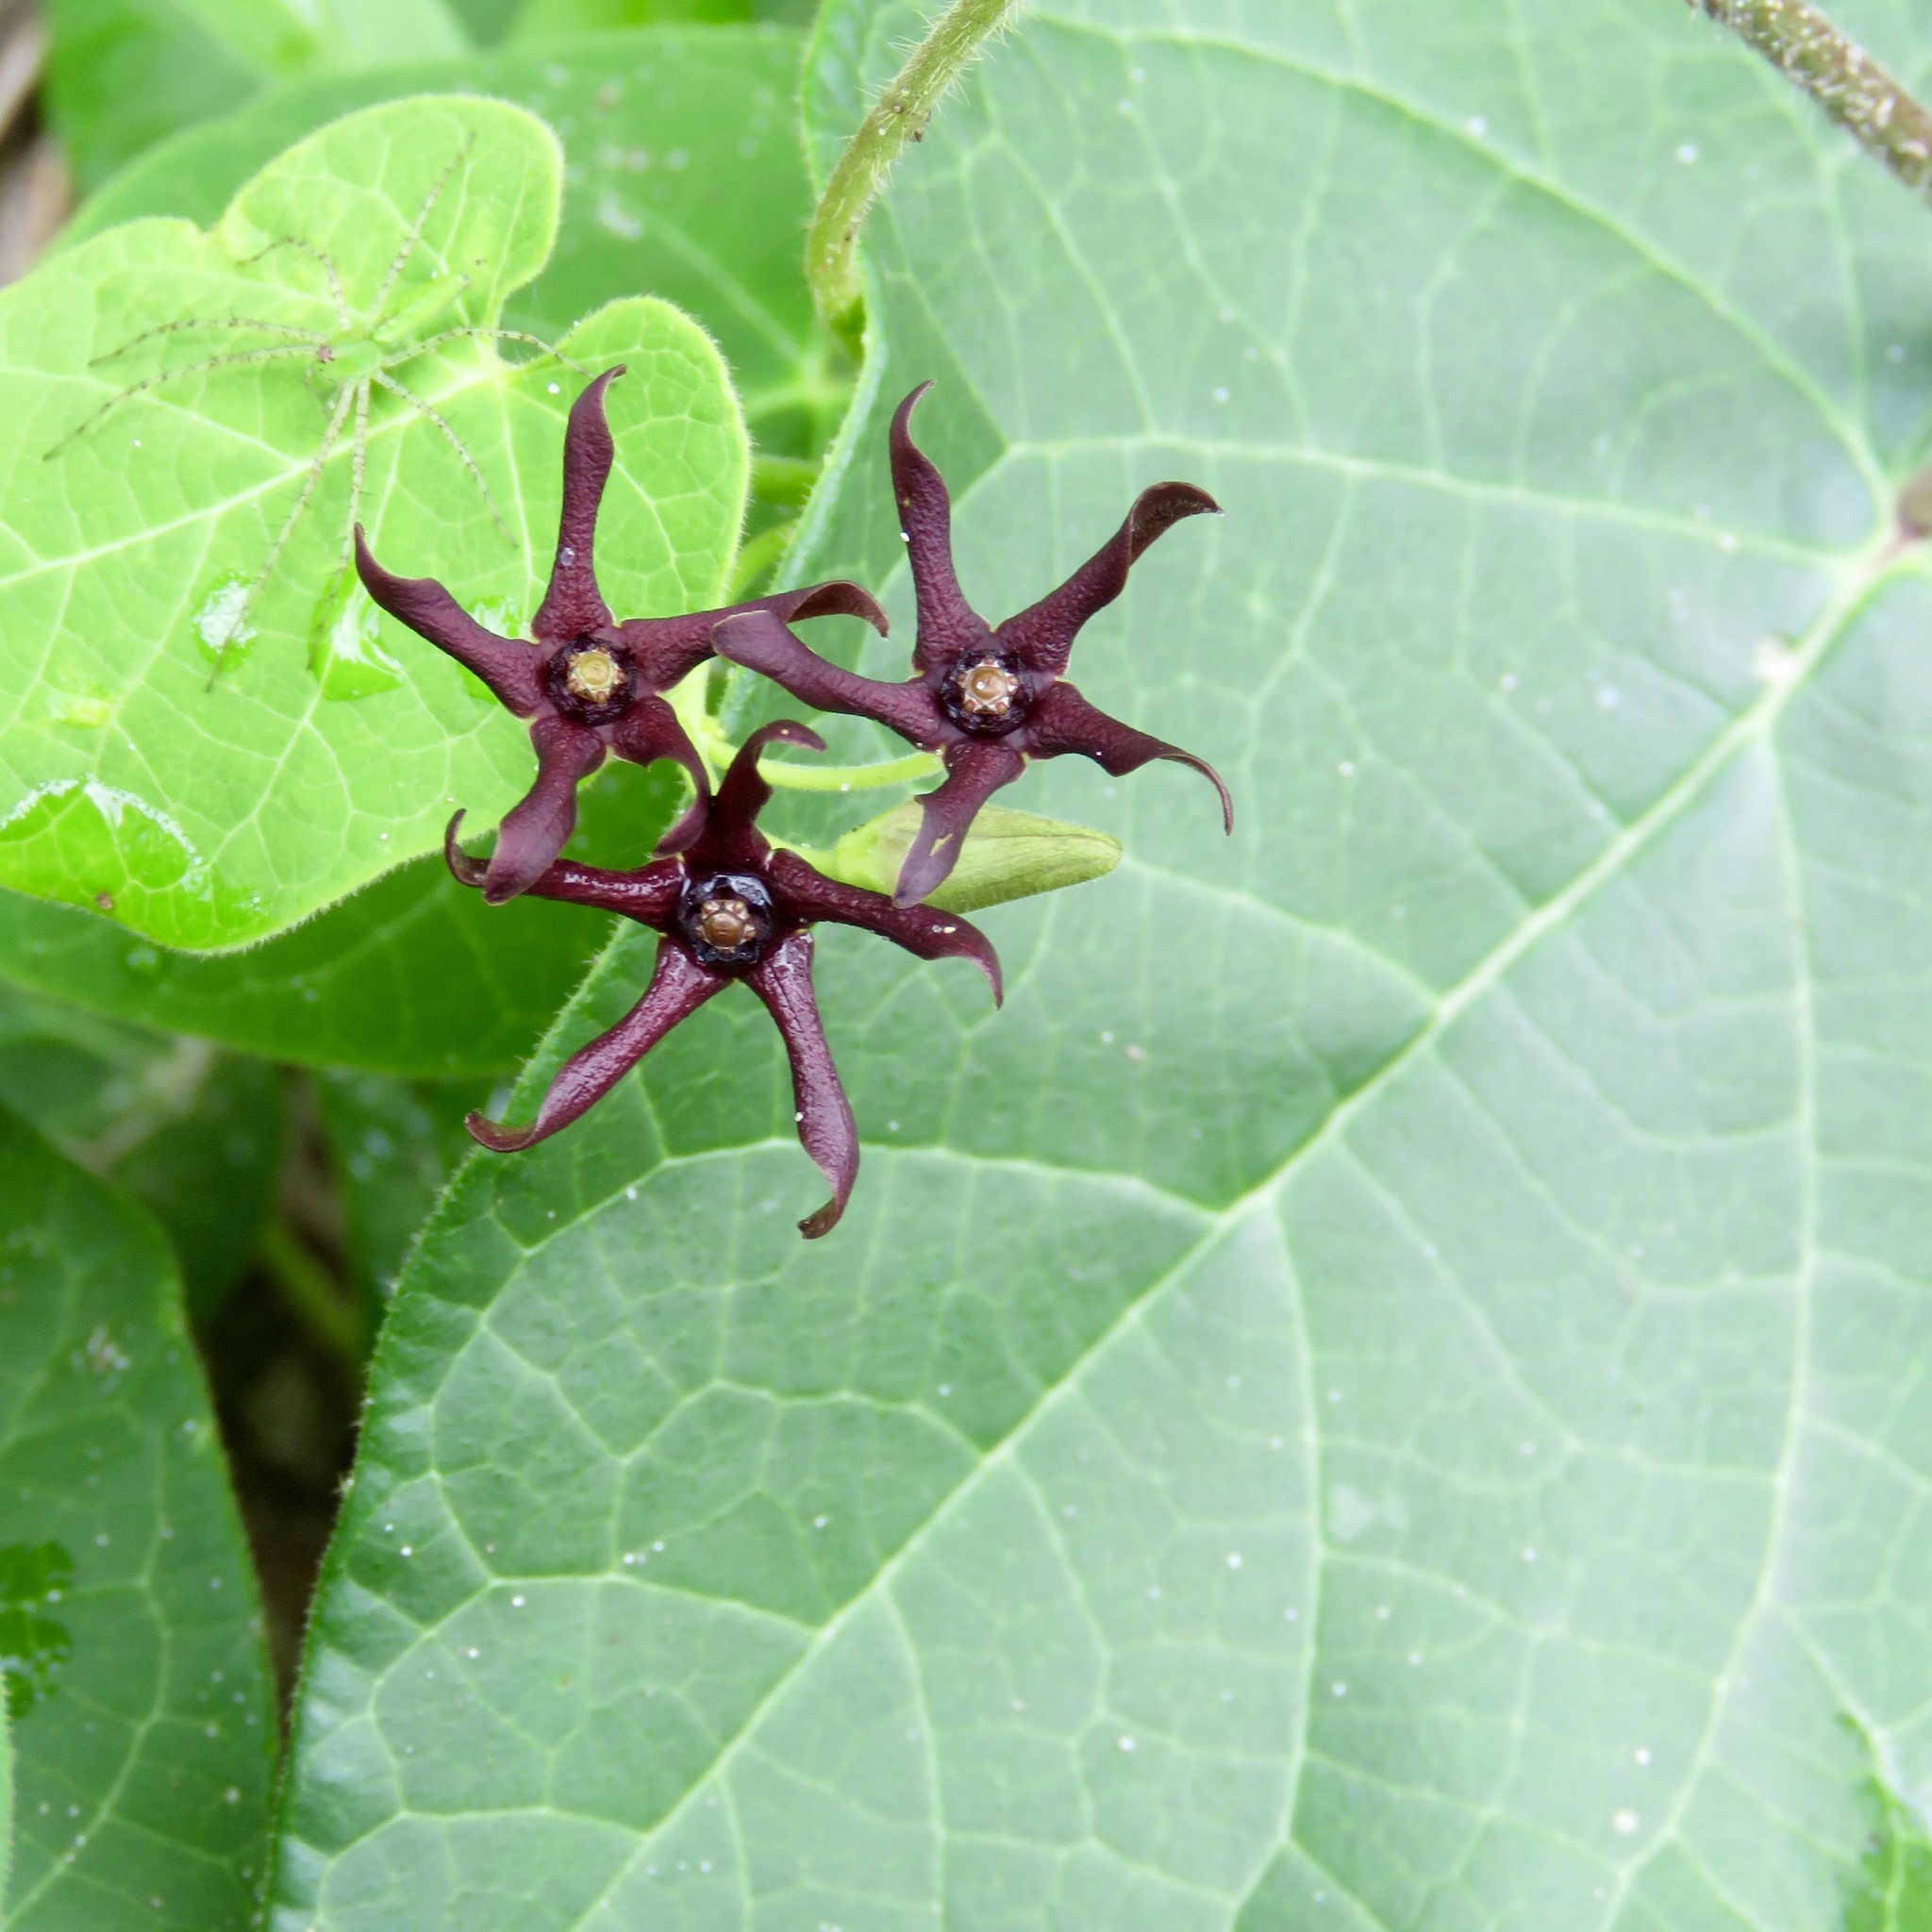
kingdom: Plantae
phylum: Tracheophyta
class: Magnoliopsida
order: Gentianales
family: Apocynaceae
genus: Matelea
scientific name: Matelea decipiens
